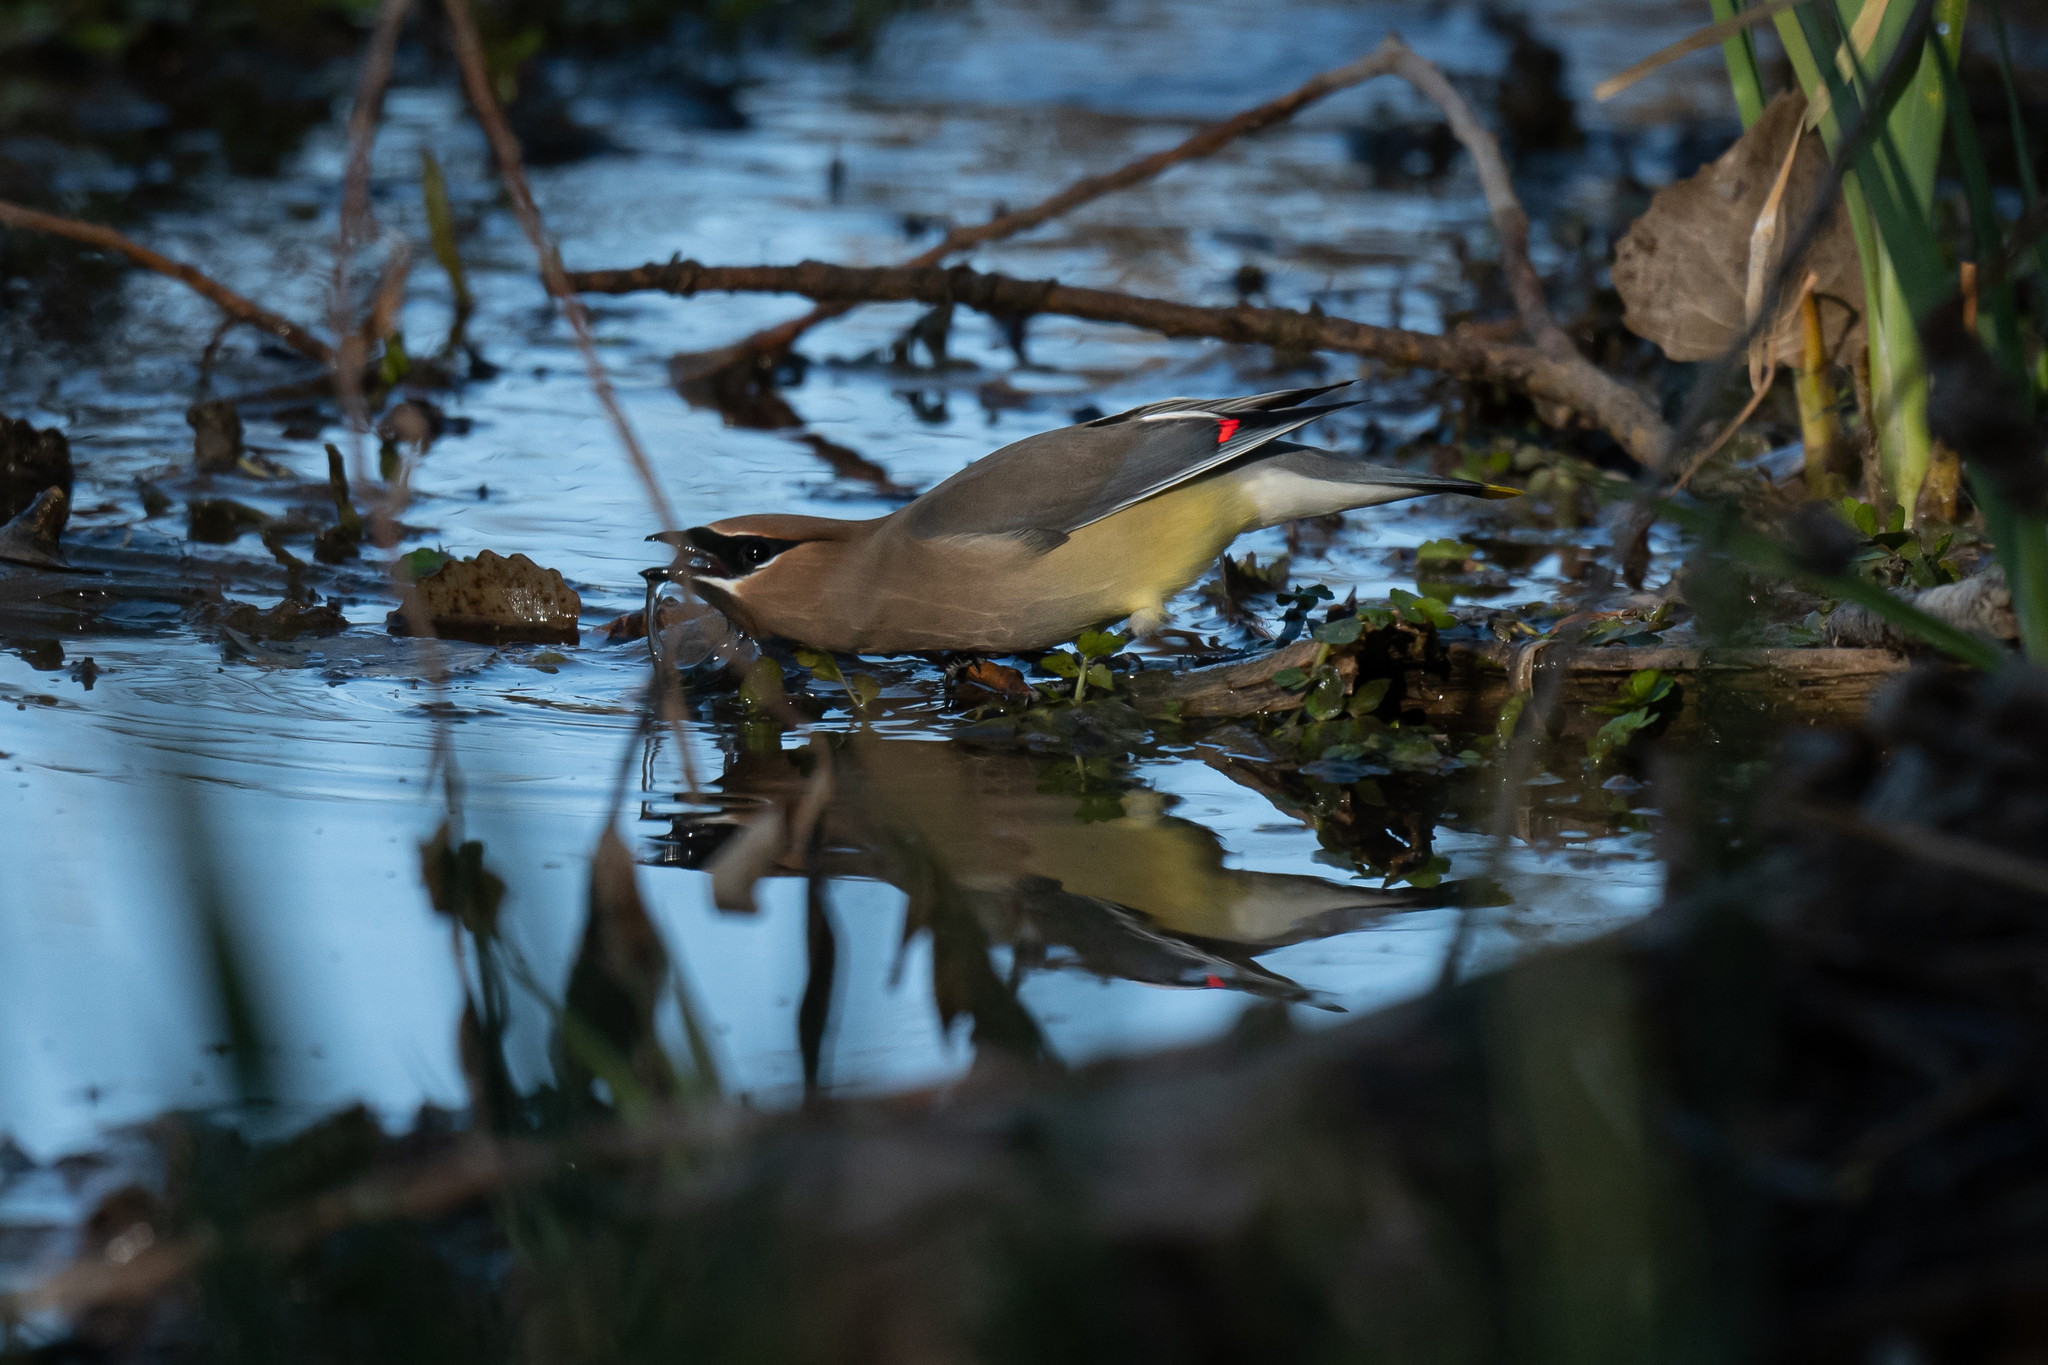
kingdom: Animalia
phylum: Chordata
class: Aves
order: Passeriformes
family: Bombycillidae
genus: Bombycilla
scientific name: Bombycilla cedrorum
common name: Cedar waxwing
